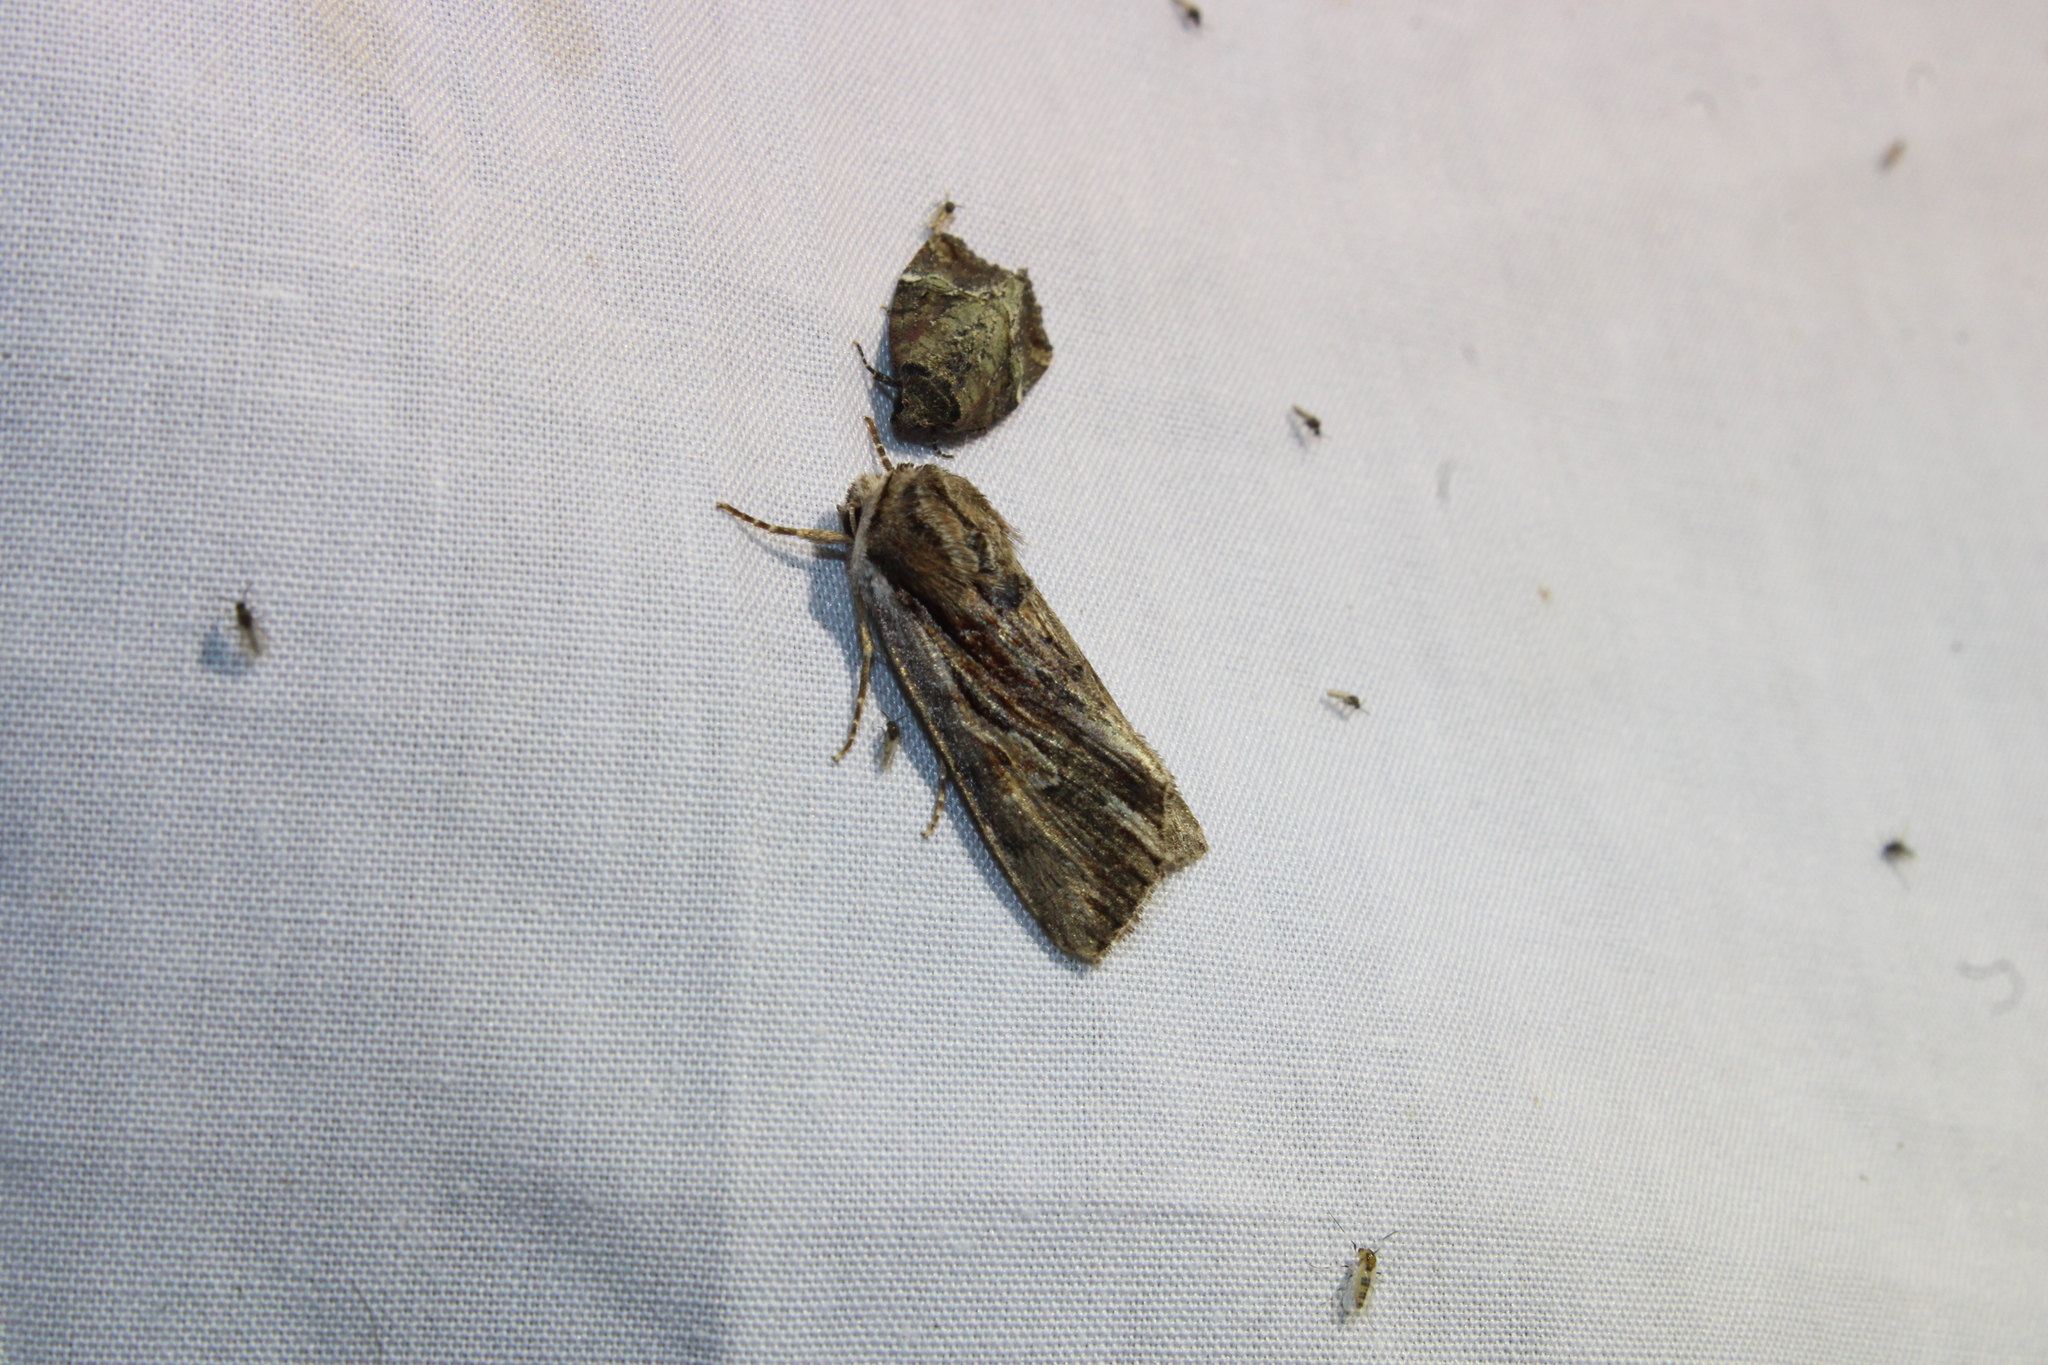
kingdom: Animalia
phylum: Arthropoda
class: Insecta
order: Lepidoptera
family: Noctuidae
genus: Achatia
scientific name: Achatia evicta
